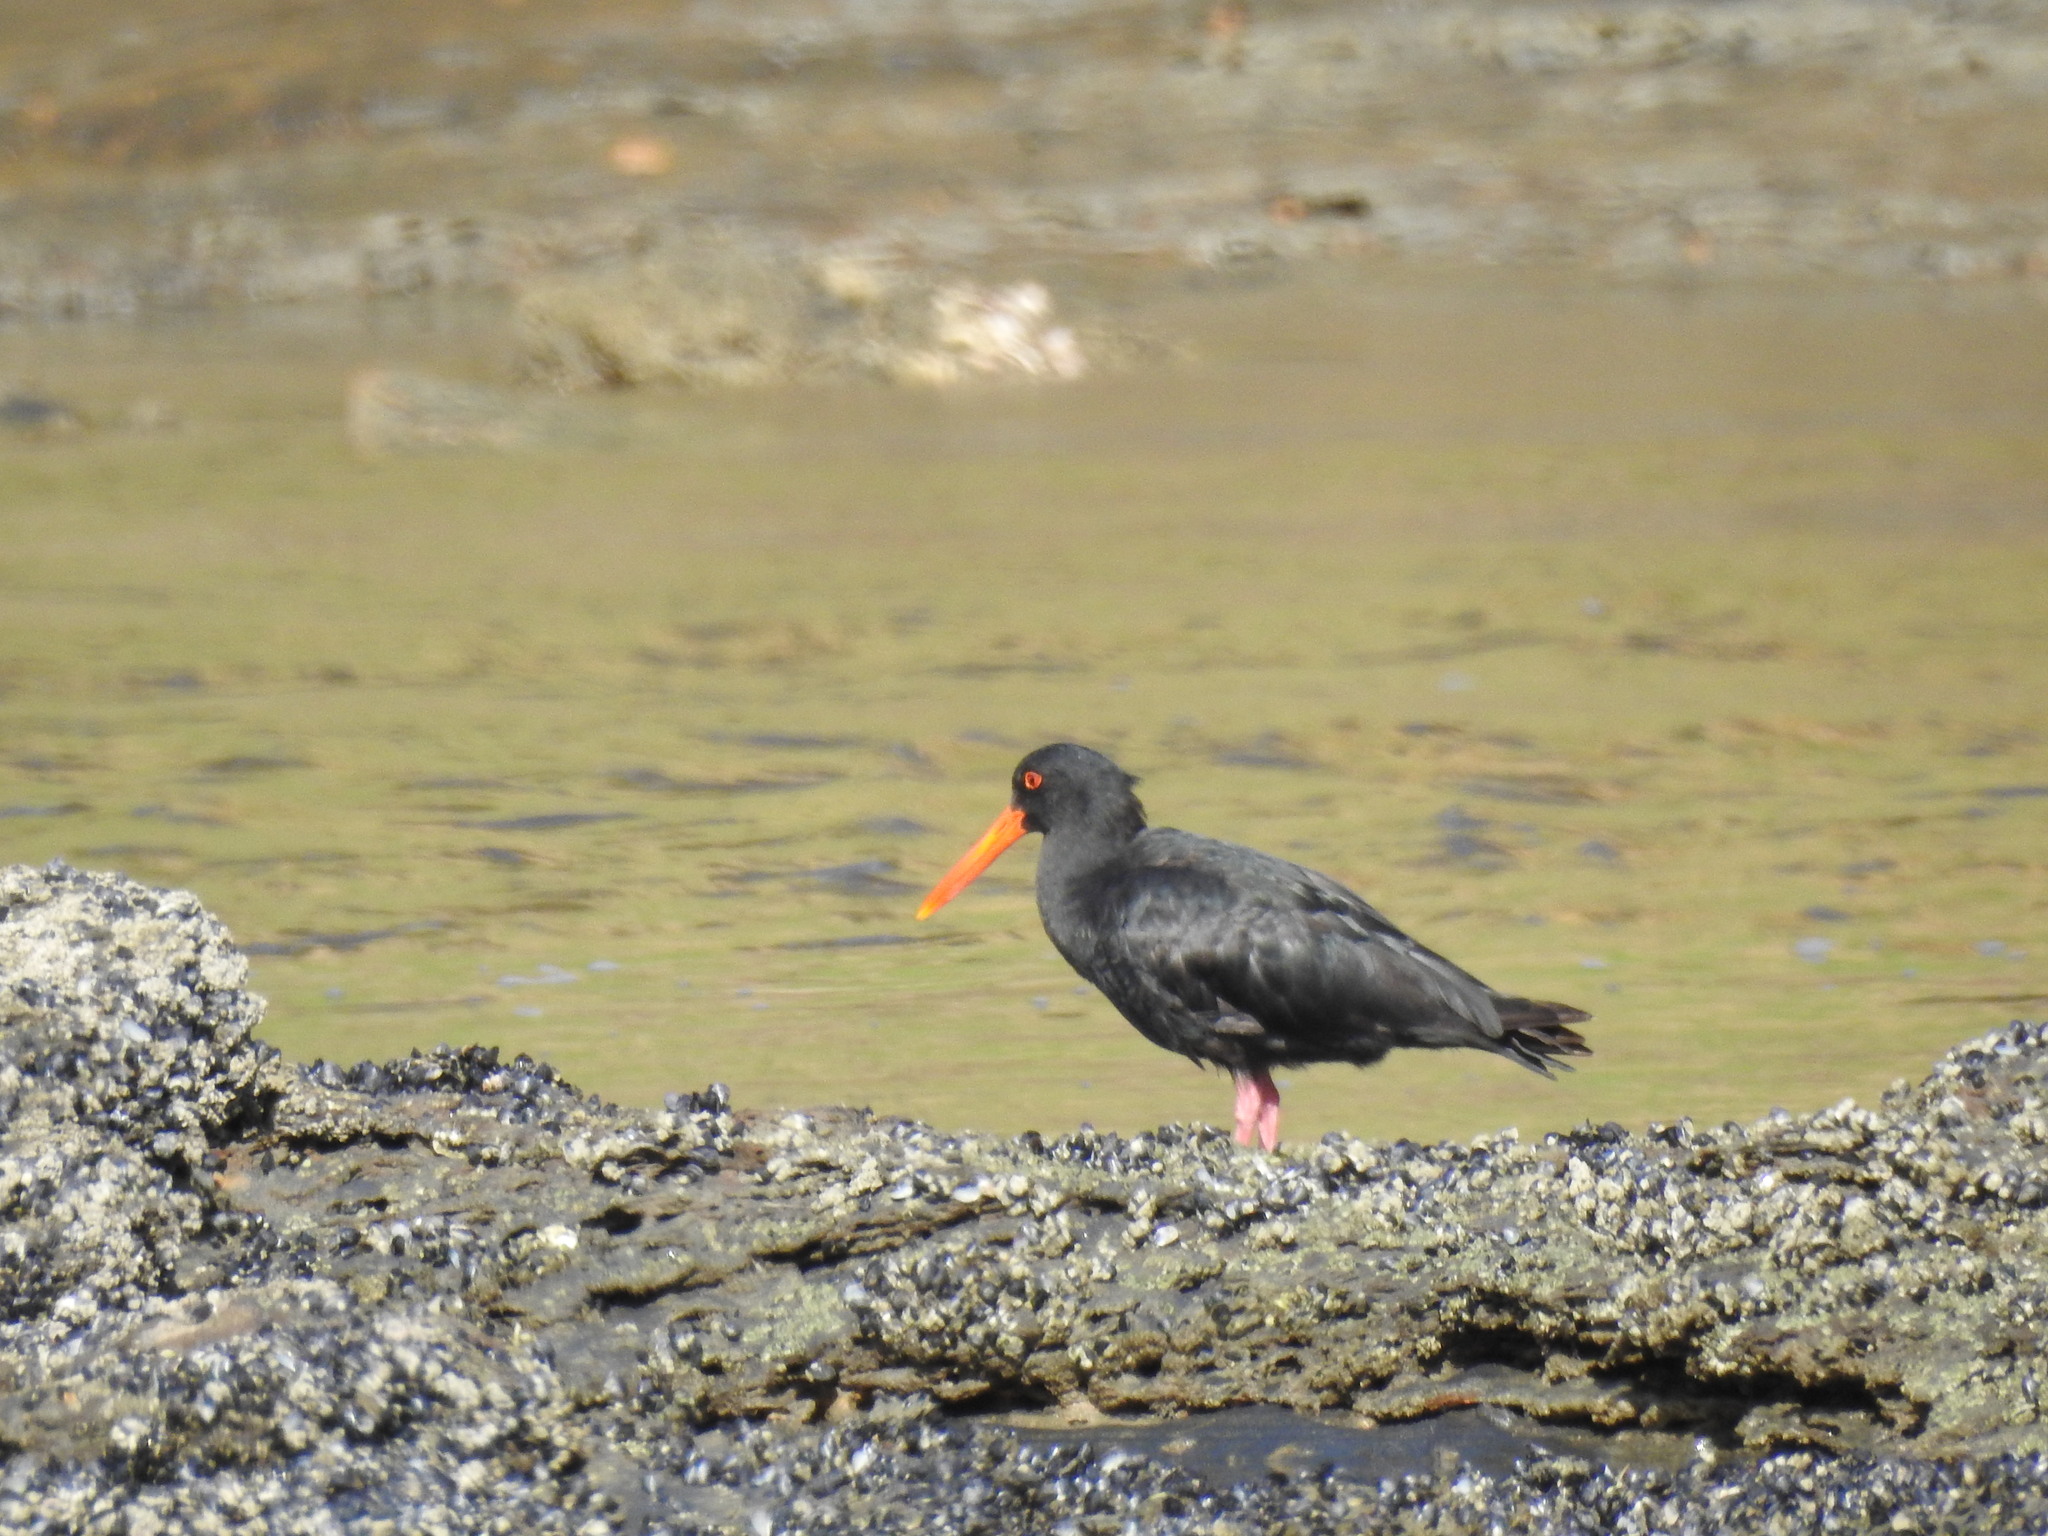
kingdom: Animalia
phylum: Chordata
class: Aves
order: Charadriiformes
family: Haematopodidae
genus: Haematopus
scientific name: Haematopus unicolor
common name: Variable oystercatcher
